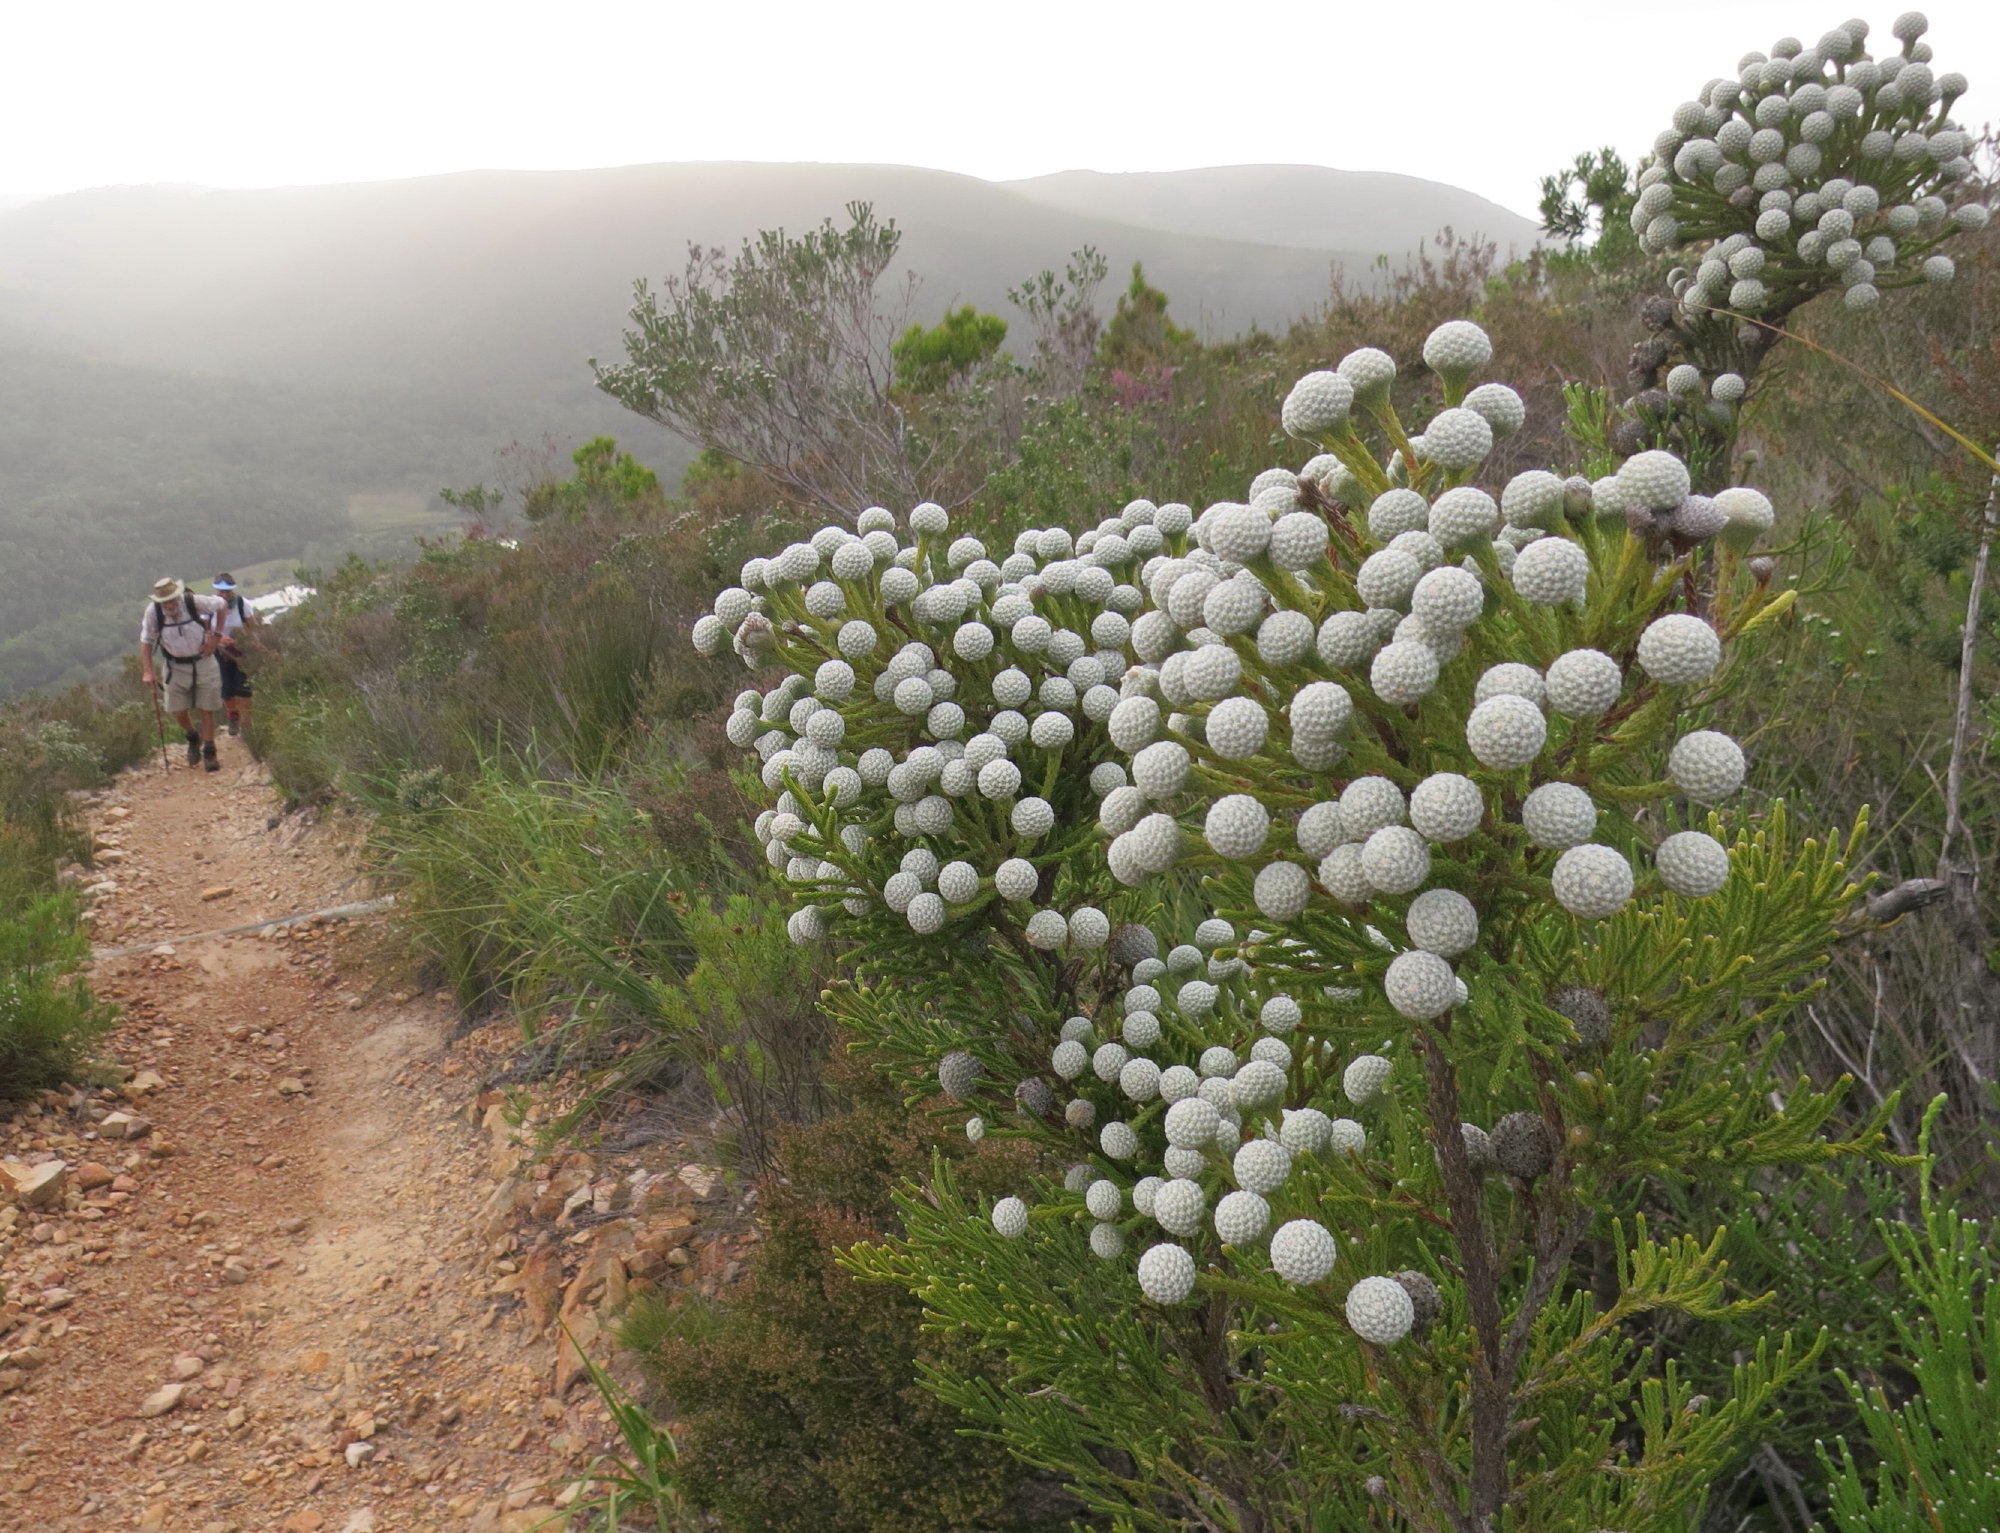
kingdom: Plantae
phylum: Tracheophyta
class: Magnoliopsida
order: Bruniales
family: Bruniaceae
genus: Brunia
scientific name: Brunia noduliflora
